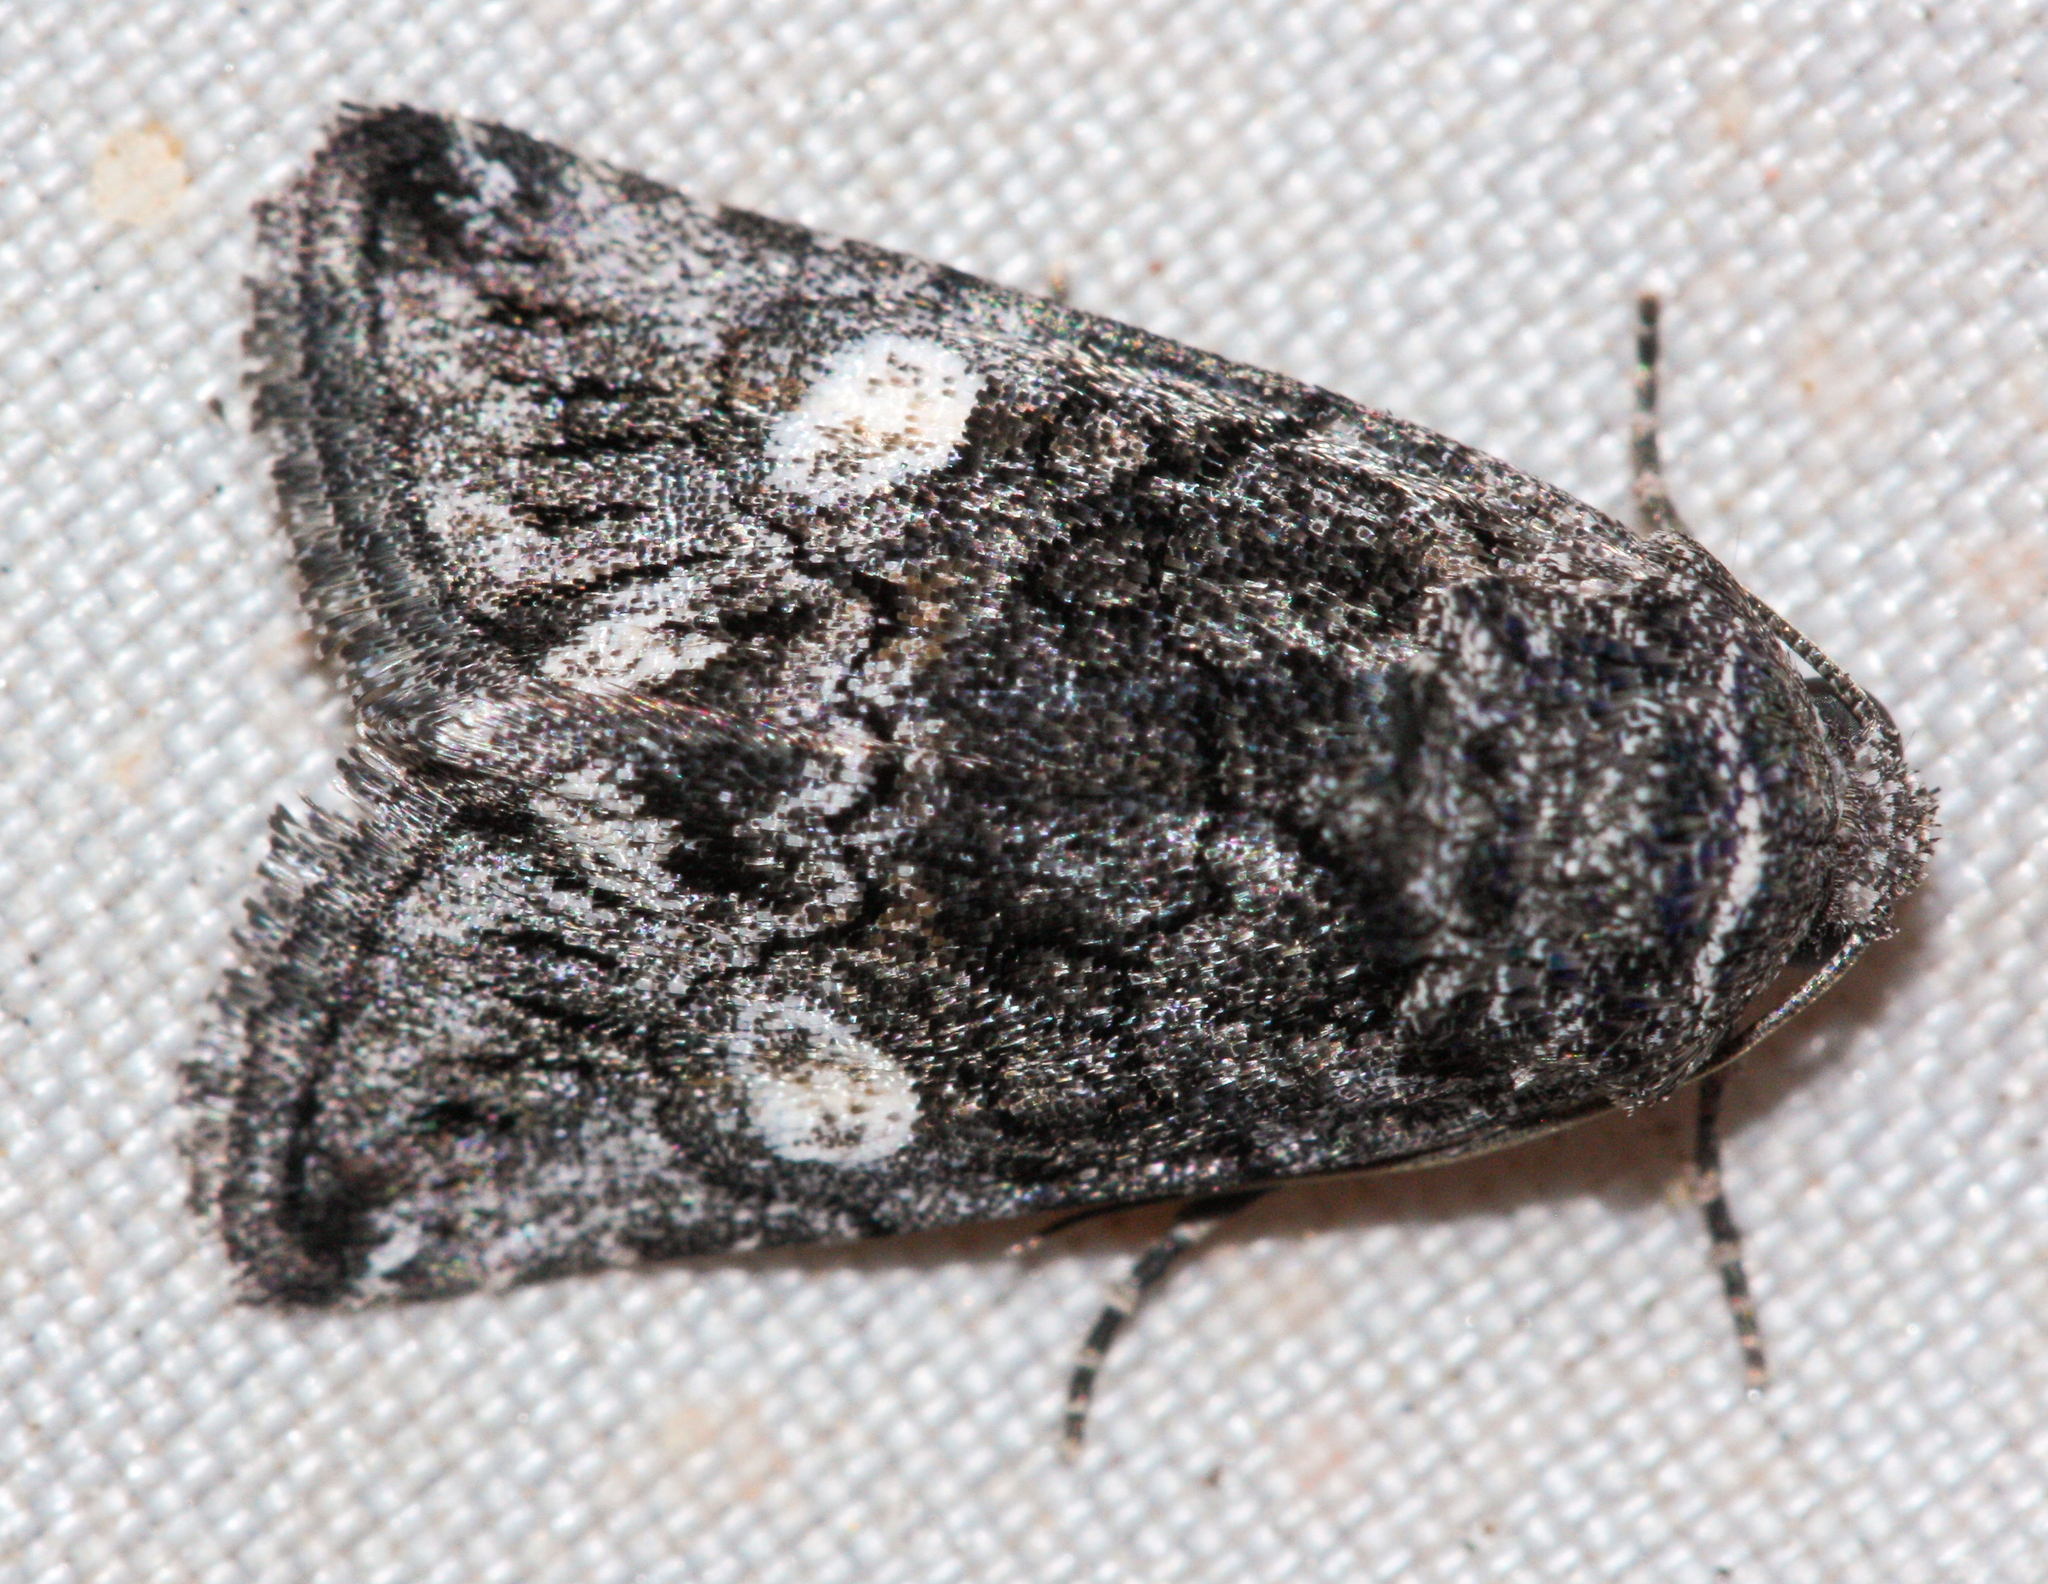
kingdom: Animalia
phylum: Arthropoda
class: Insecta
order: Lepidoptera
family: Noctuidae
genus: Copanarta
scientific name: Copanarta aurea
